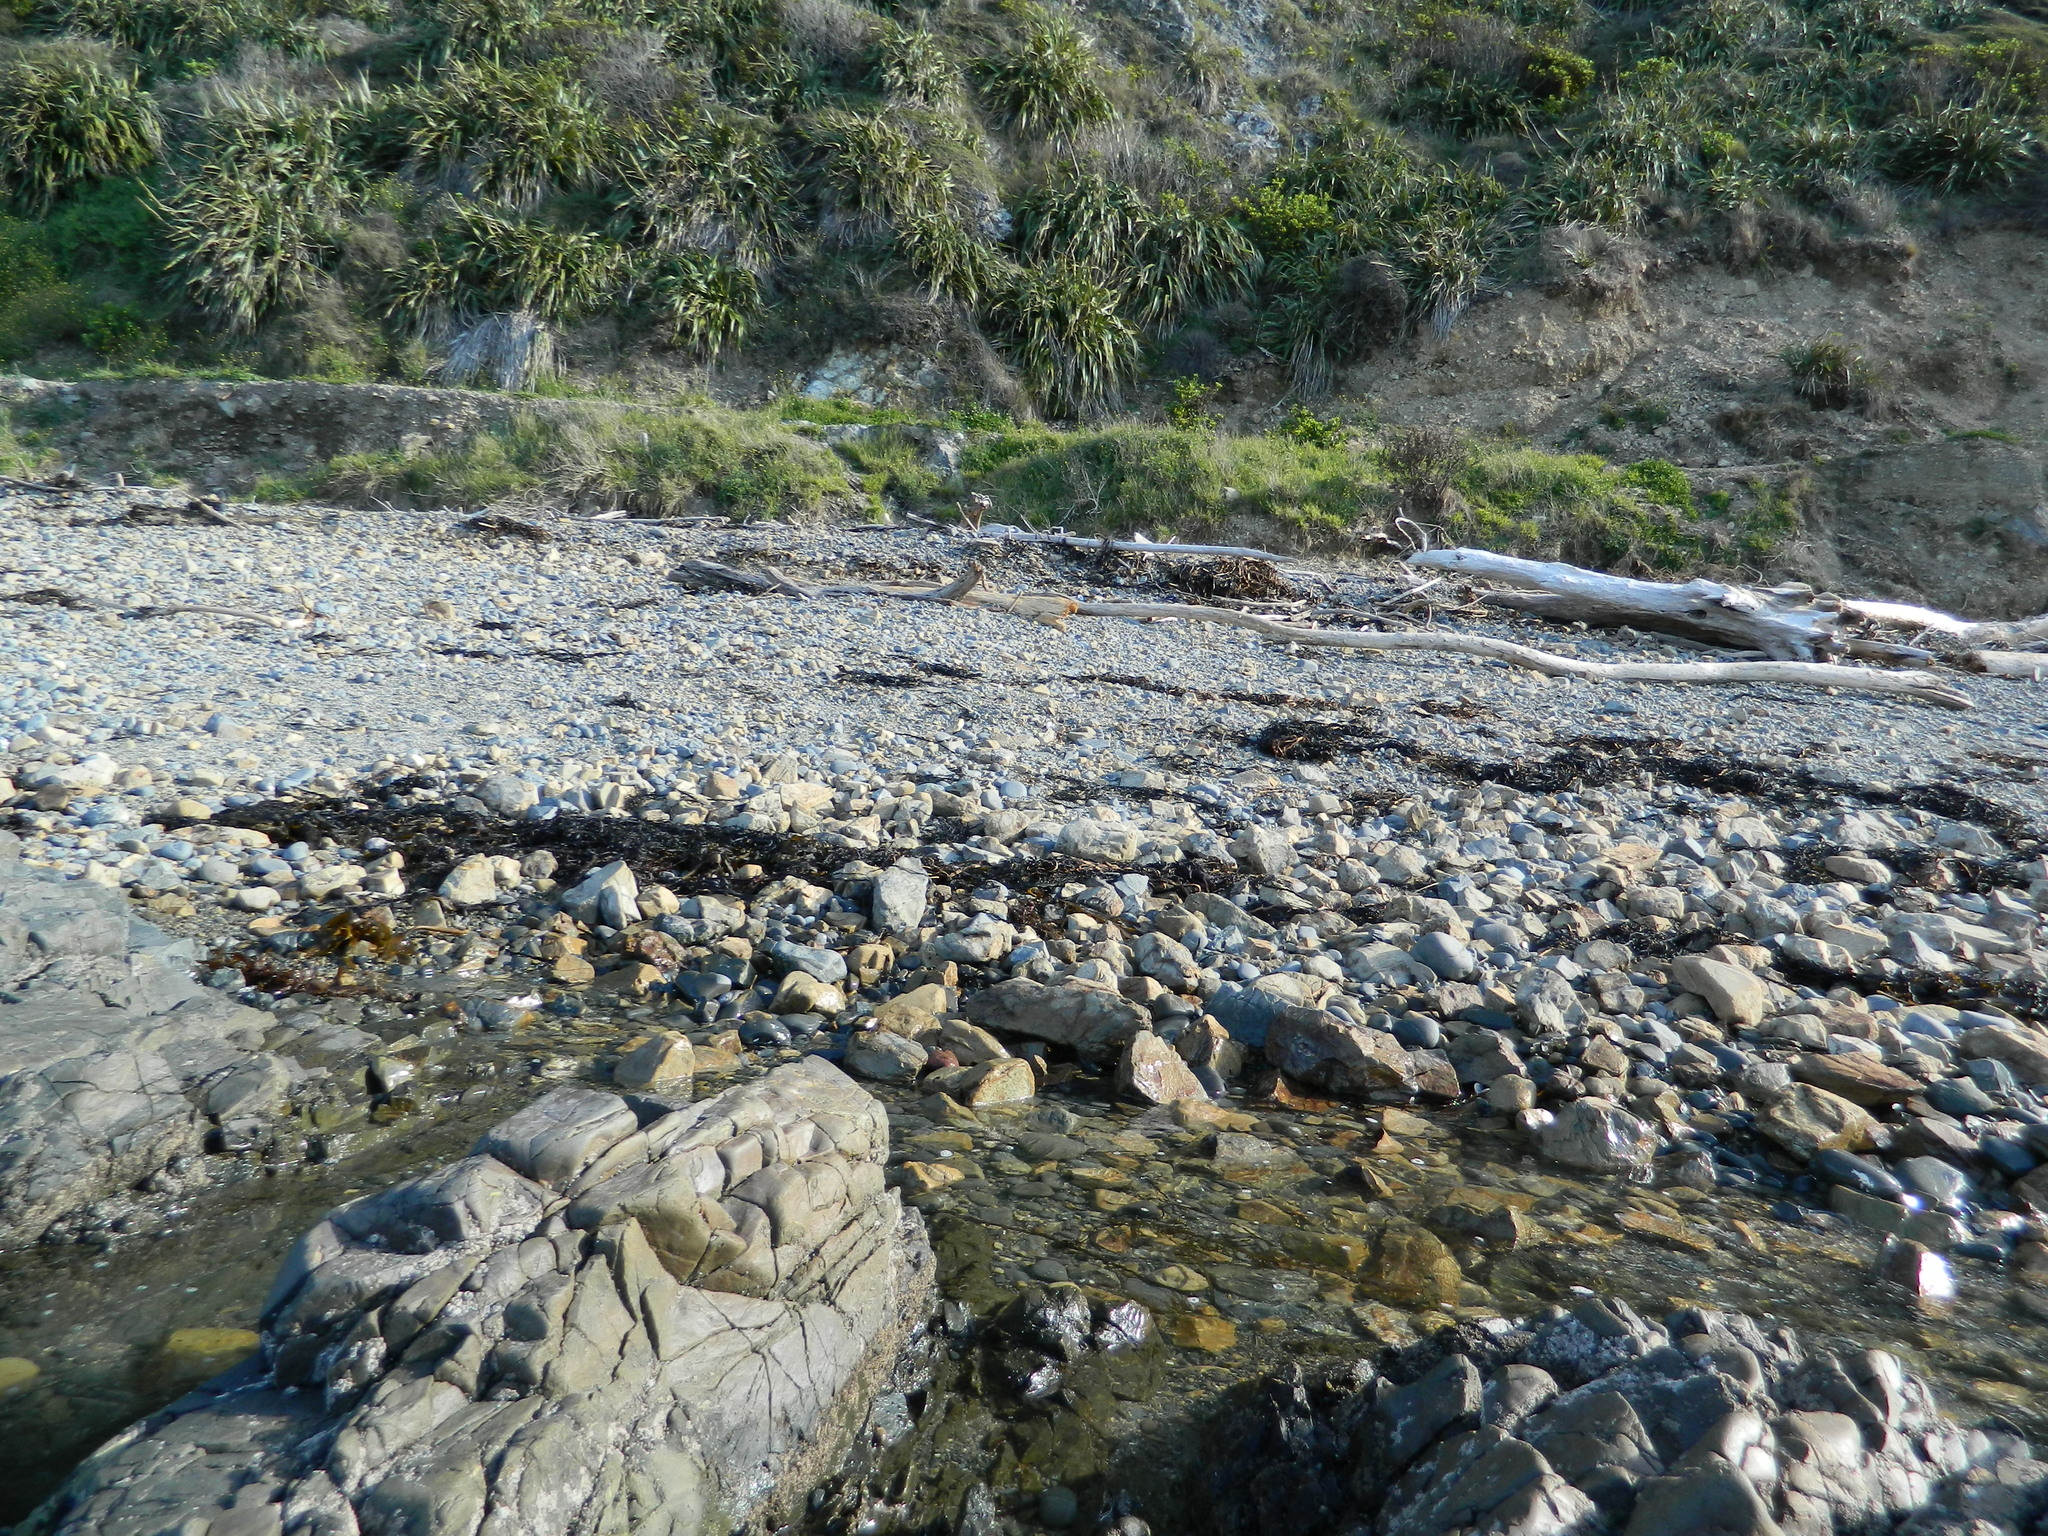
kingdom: Animalia
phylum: Cnidaria
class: Anthozoa
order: Actiniaria
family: Actiniidae
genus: Anthopleura
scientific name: Anthopleura minima
